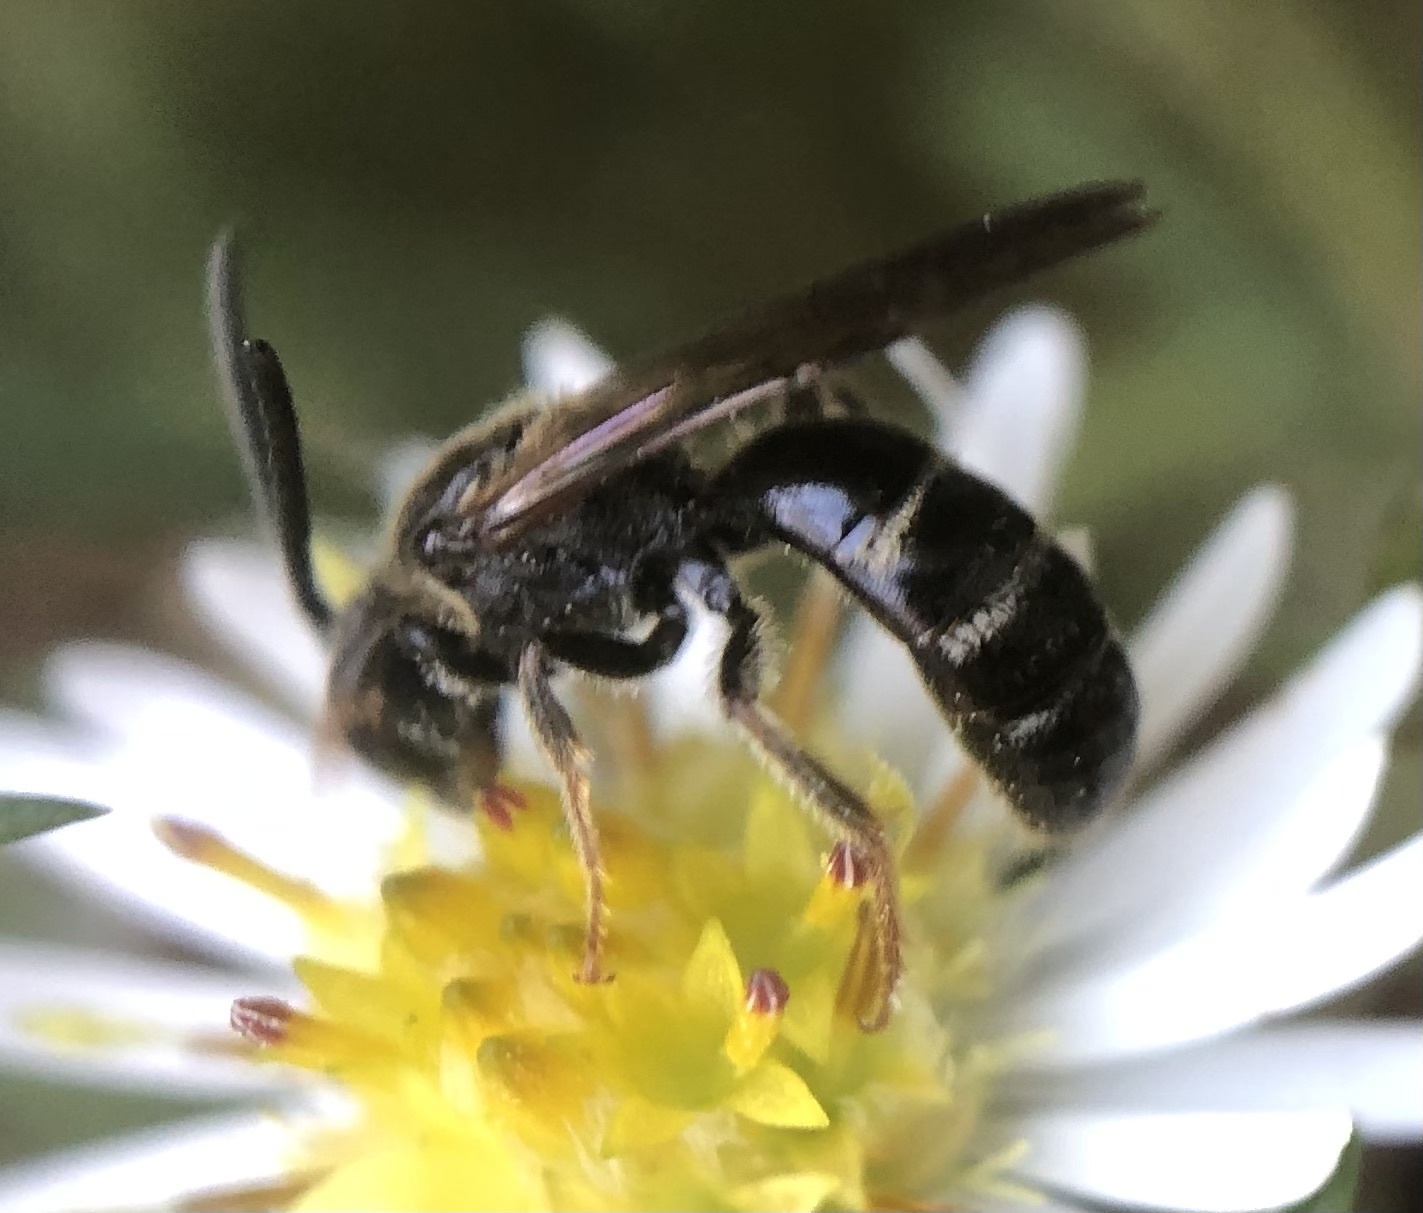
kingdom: Animalia
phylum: Arthropoda
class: Insecta
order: Hymenoptera
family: Halictidae
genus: Lasioglossum
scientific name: Lasioglossum fuscipenne
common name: Brown-winged sweat bee
